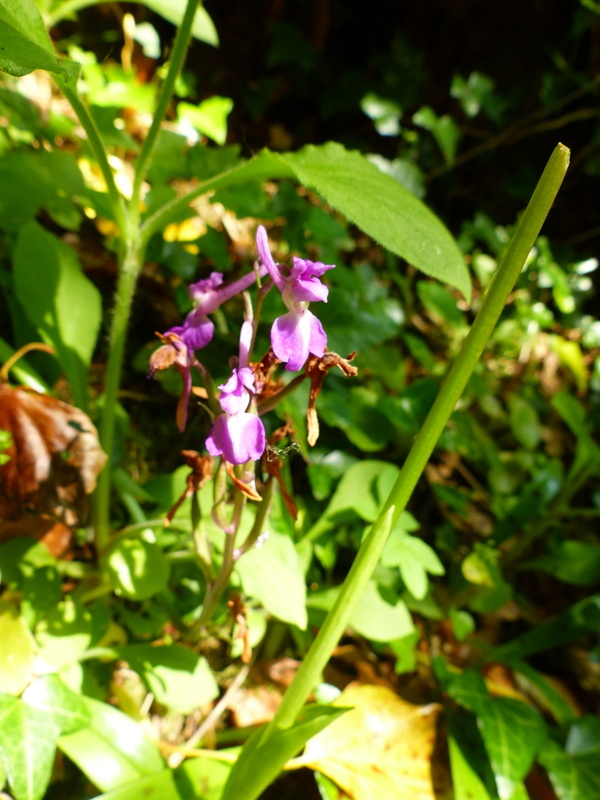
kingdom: Plantae
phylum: Tracheophyta
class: Liliopsida
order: Asparagales
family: Orchidaceae
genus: Orchis
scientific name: Orchis mascula
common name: Early-purple orchid
